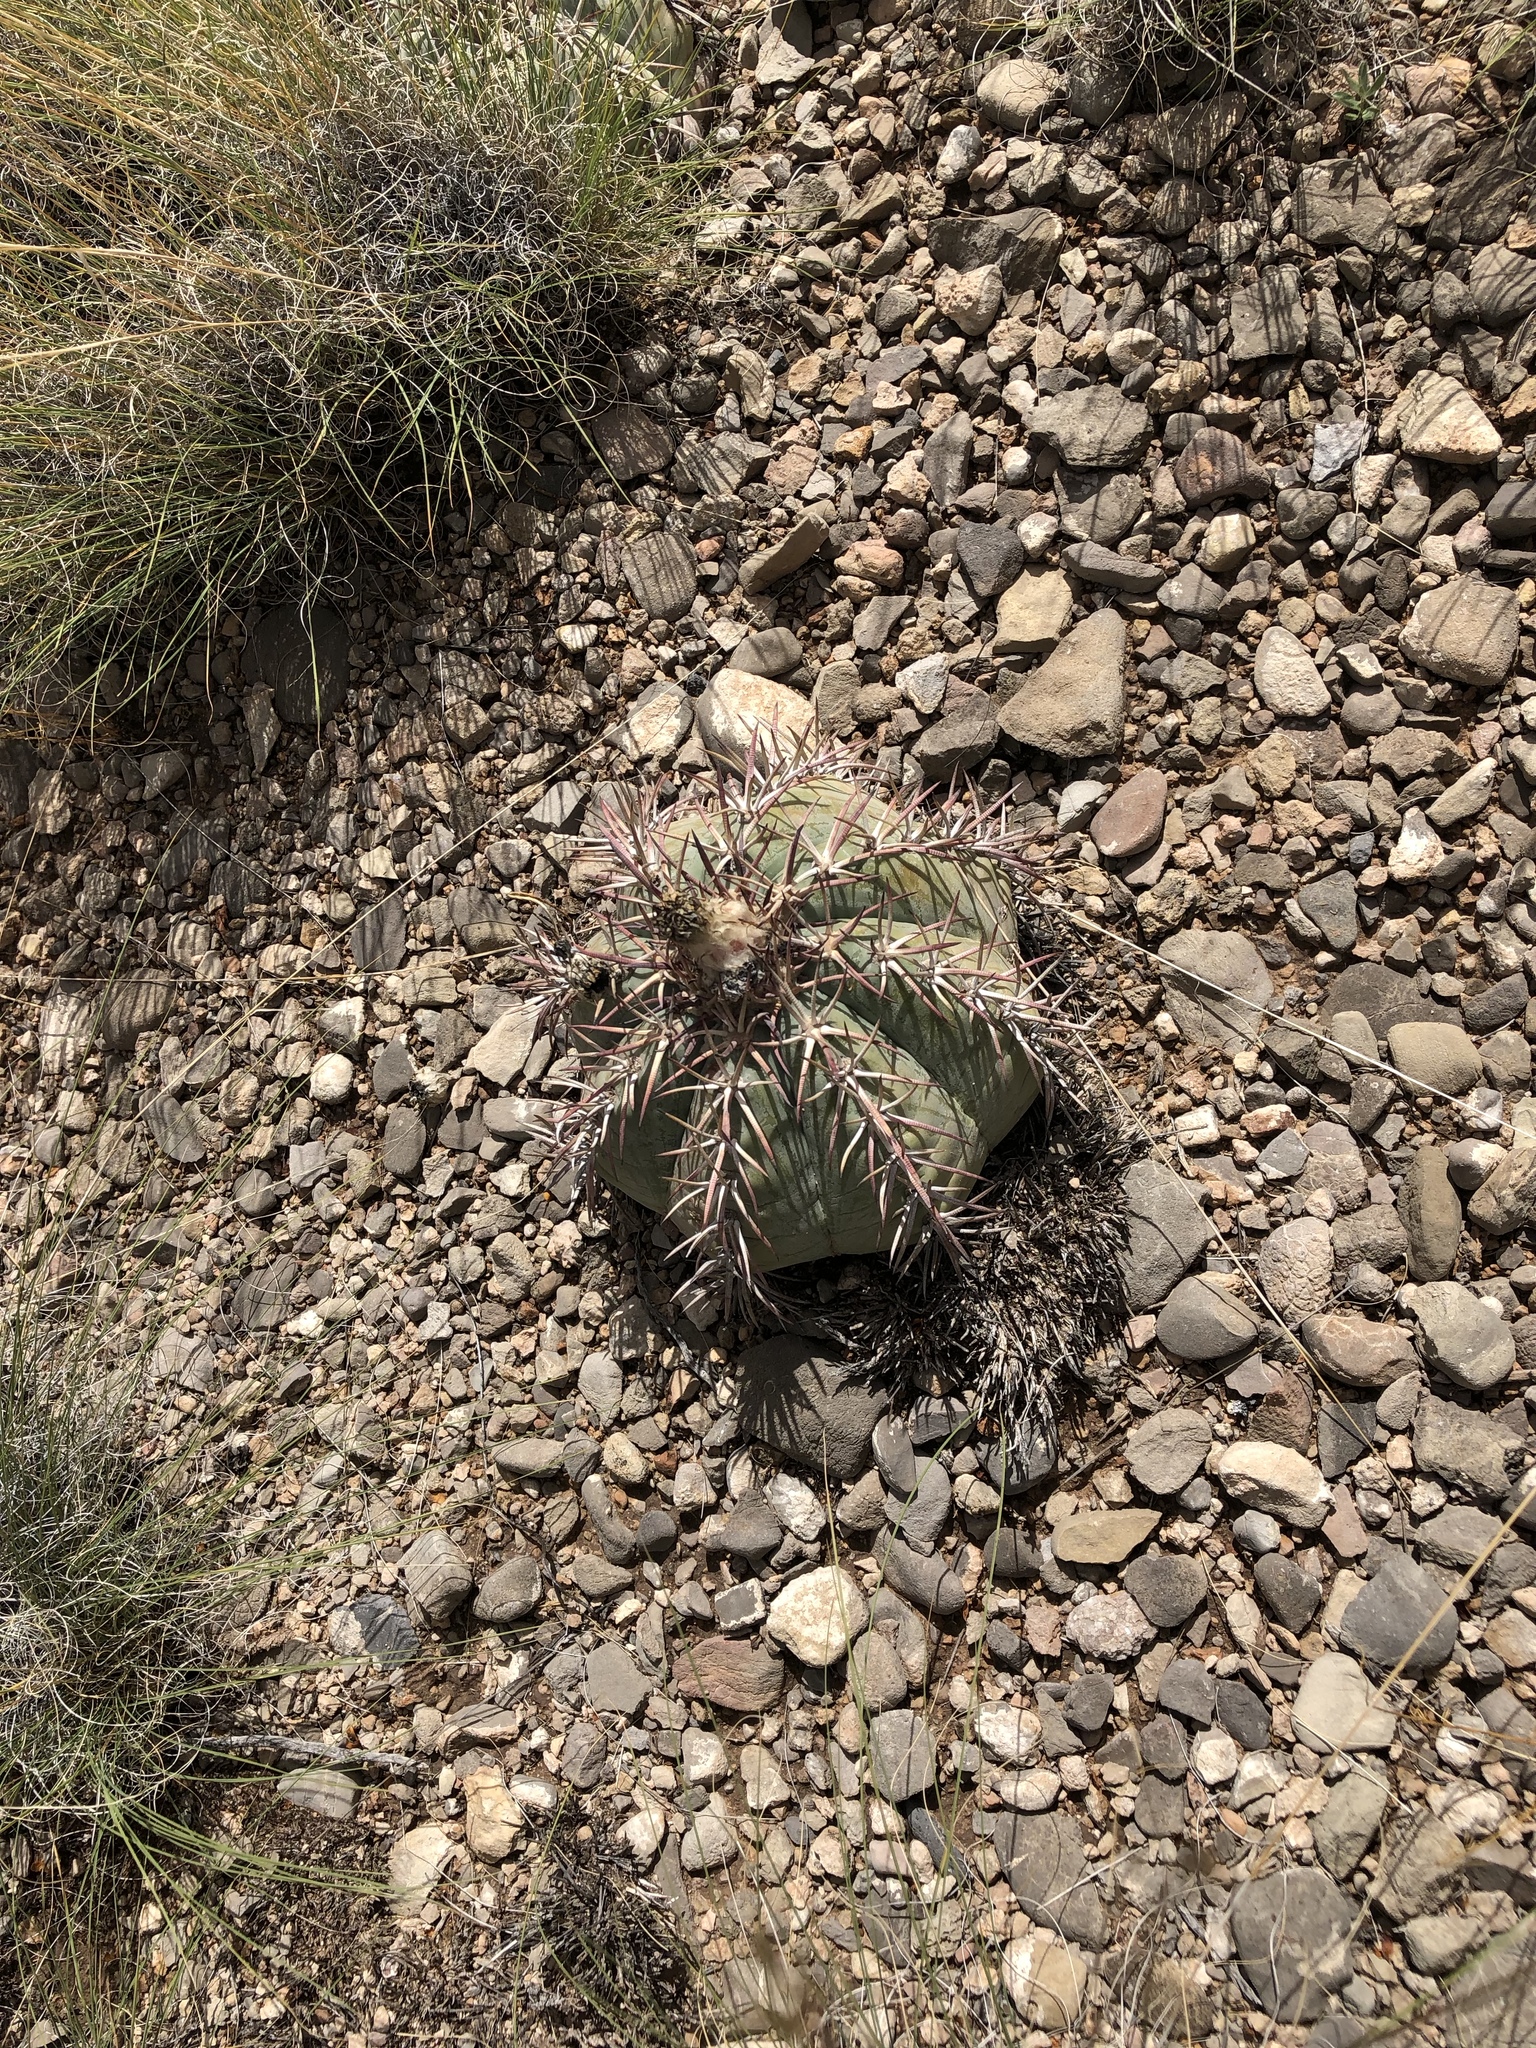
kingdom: Plantae
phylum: Tracheophyta
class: Magnoliopsida
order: Caryophyllales
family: Cactaceae
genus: Echinocactus
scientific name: Echinocactus horizonthalonius
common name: Devilshead
